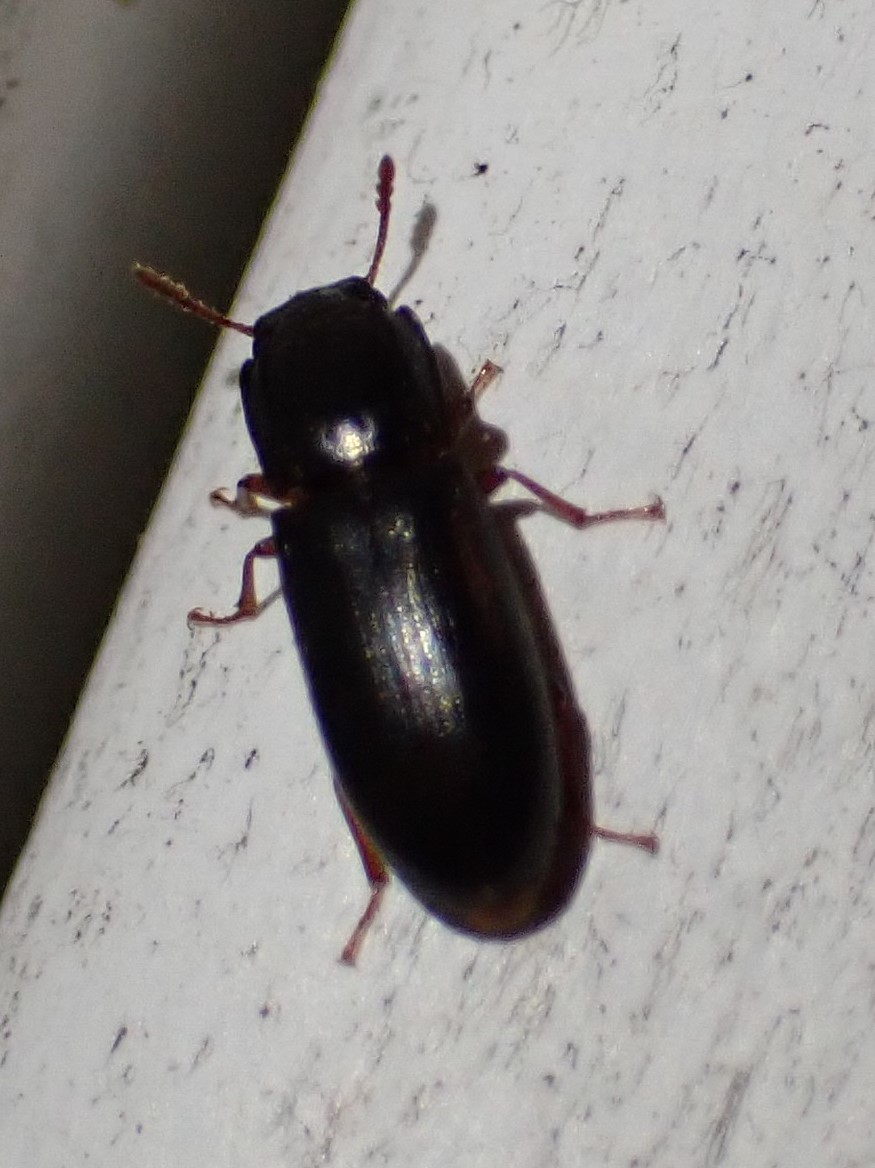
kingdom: Animalia
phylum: Arthropoda
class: Insecta
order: Coleoptera
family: Zopheridae
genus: Aulonium
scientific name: Aulonium parallelopipedum
